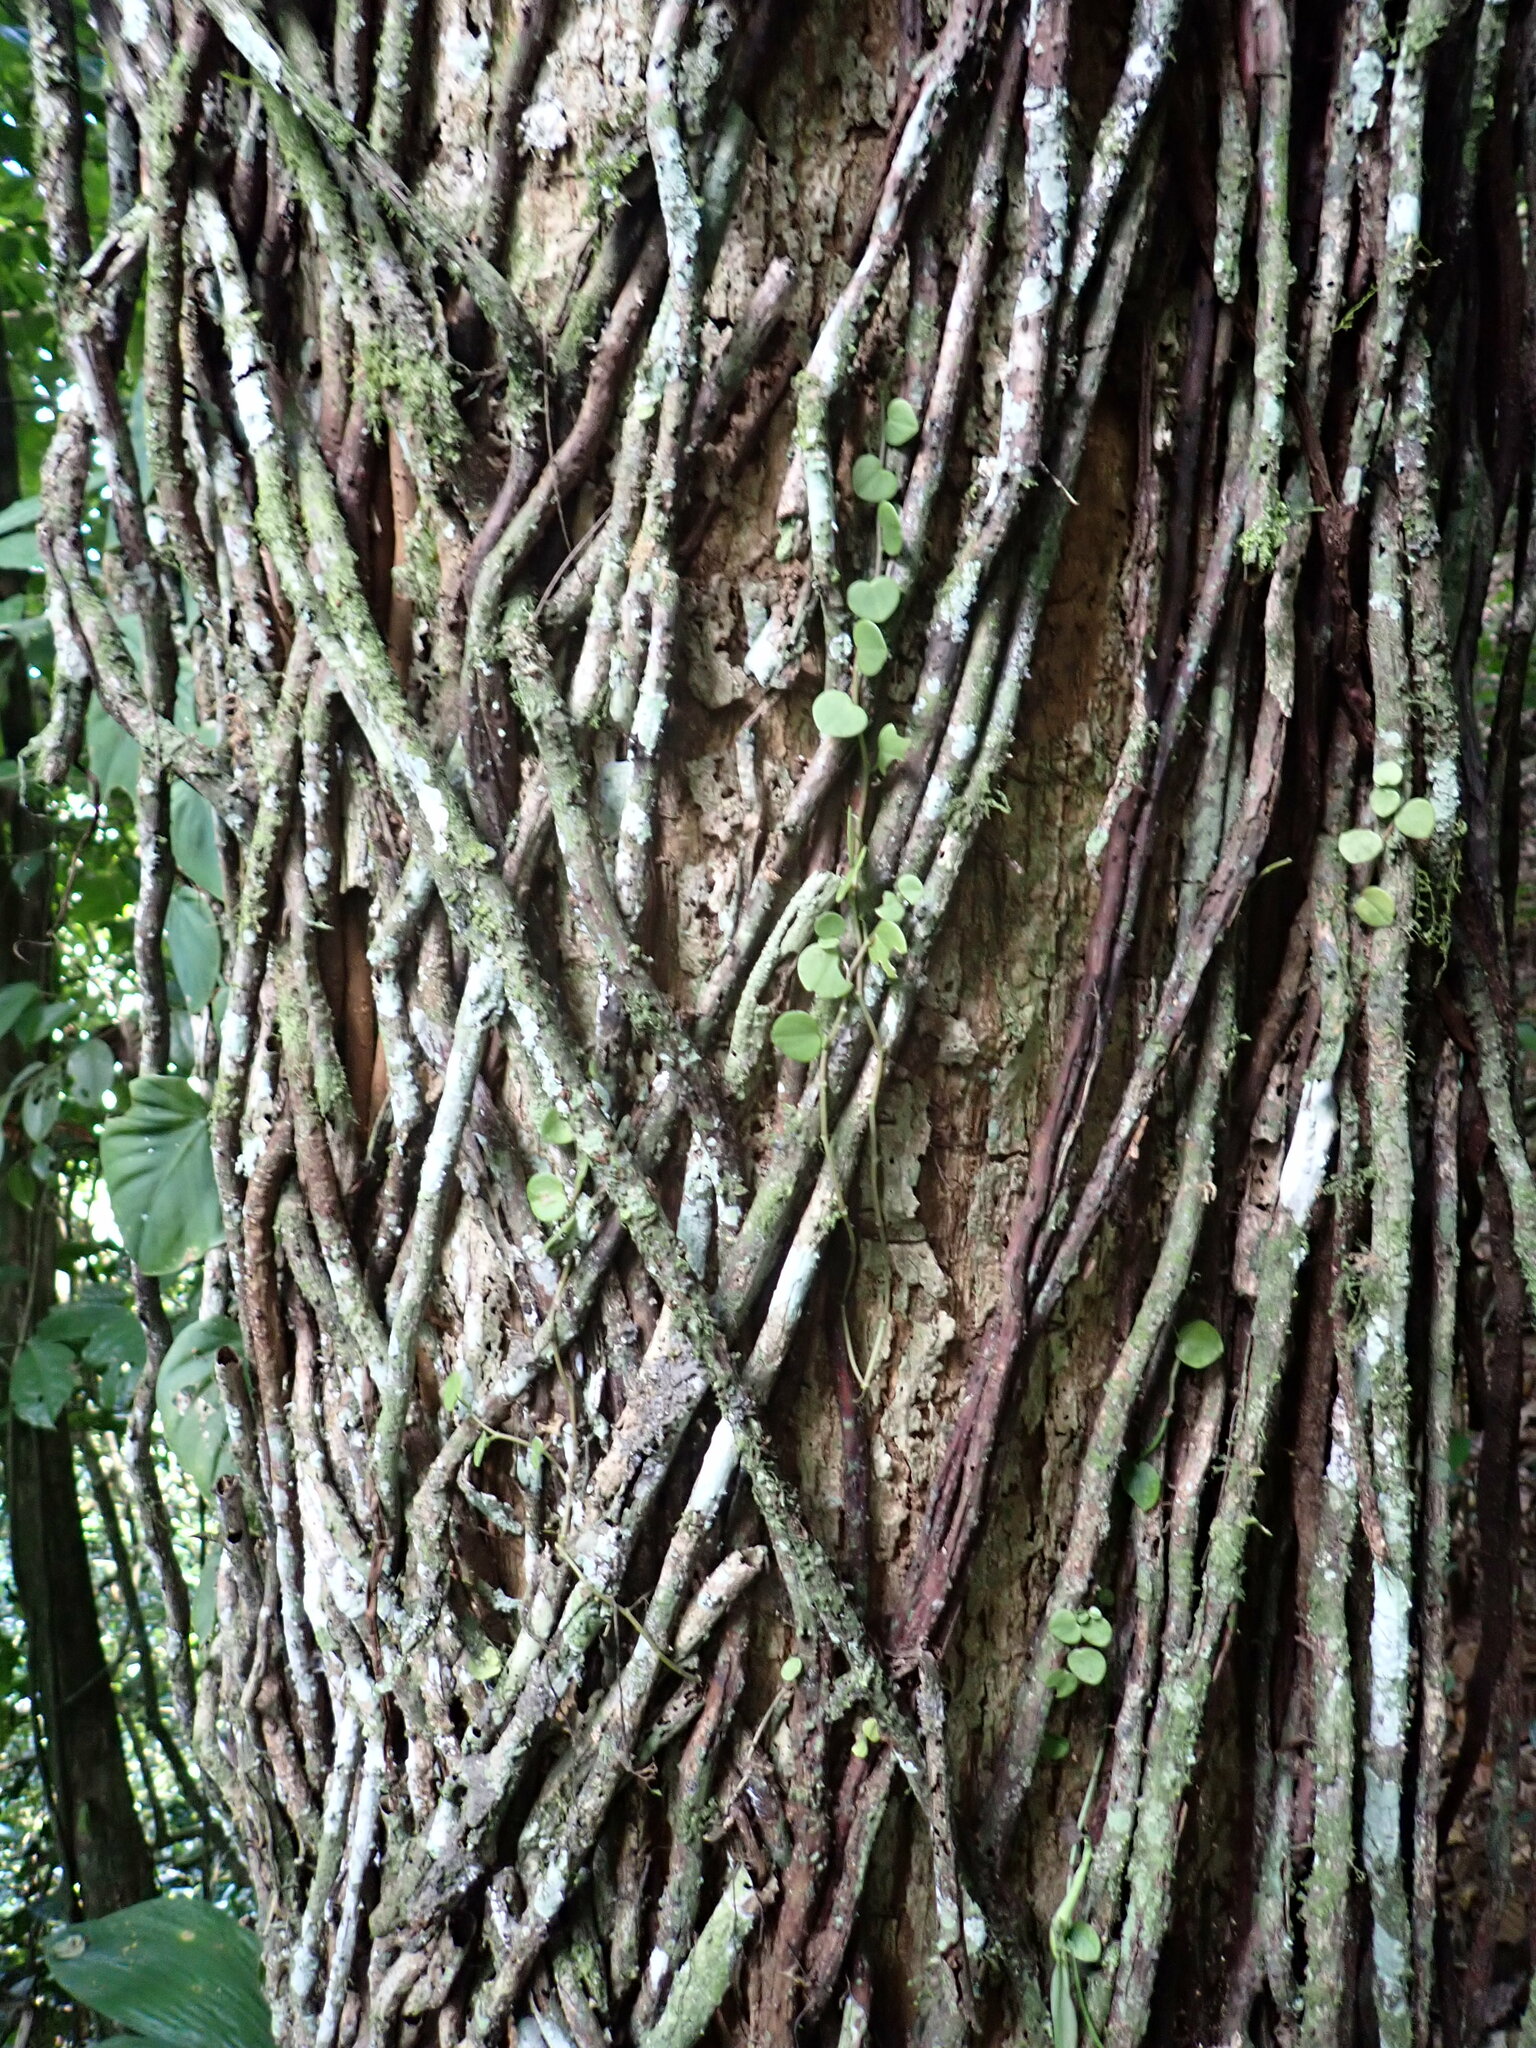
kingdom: Plantae
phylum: Tracheophyta
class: Magnoliopsida
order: Piperales
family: Piperaceae
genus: Peperomia
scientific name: Peperomia serpens
